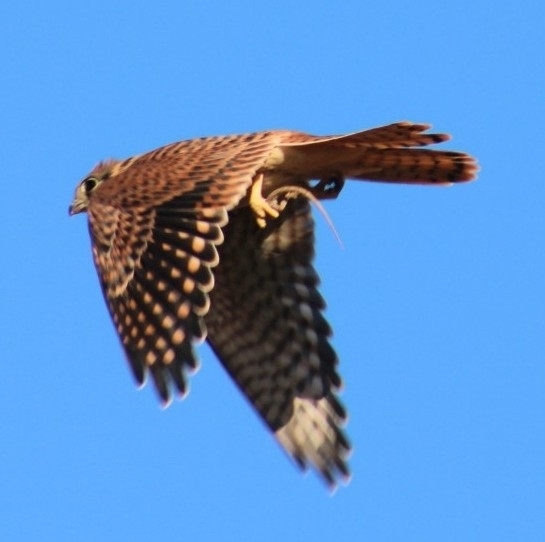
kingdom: Animalia
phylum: Chordata
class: Aves
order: Falconiformes
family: Falconidae
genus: Falco
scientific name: Falco sparverius
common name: American kestrel
